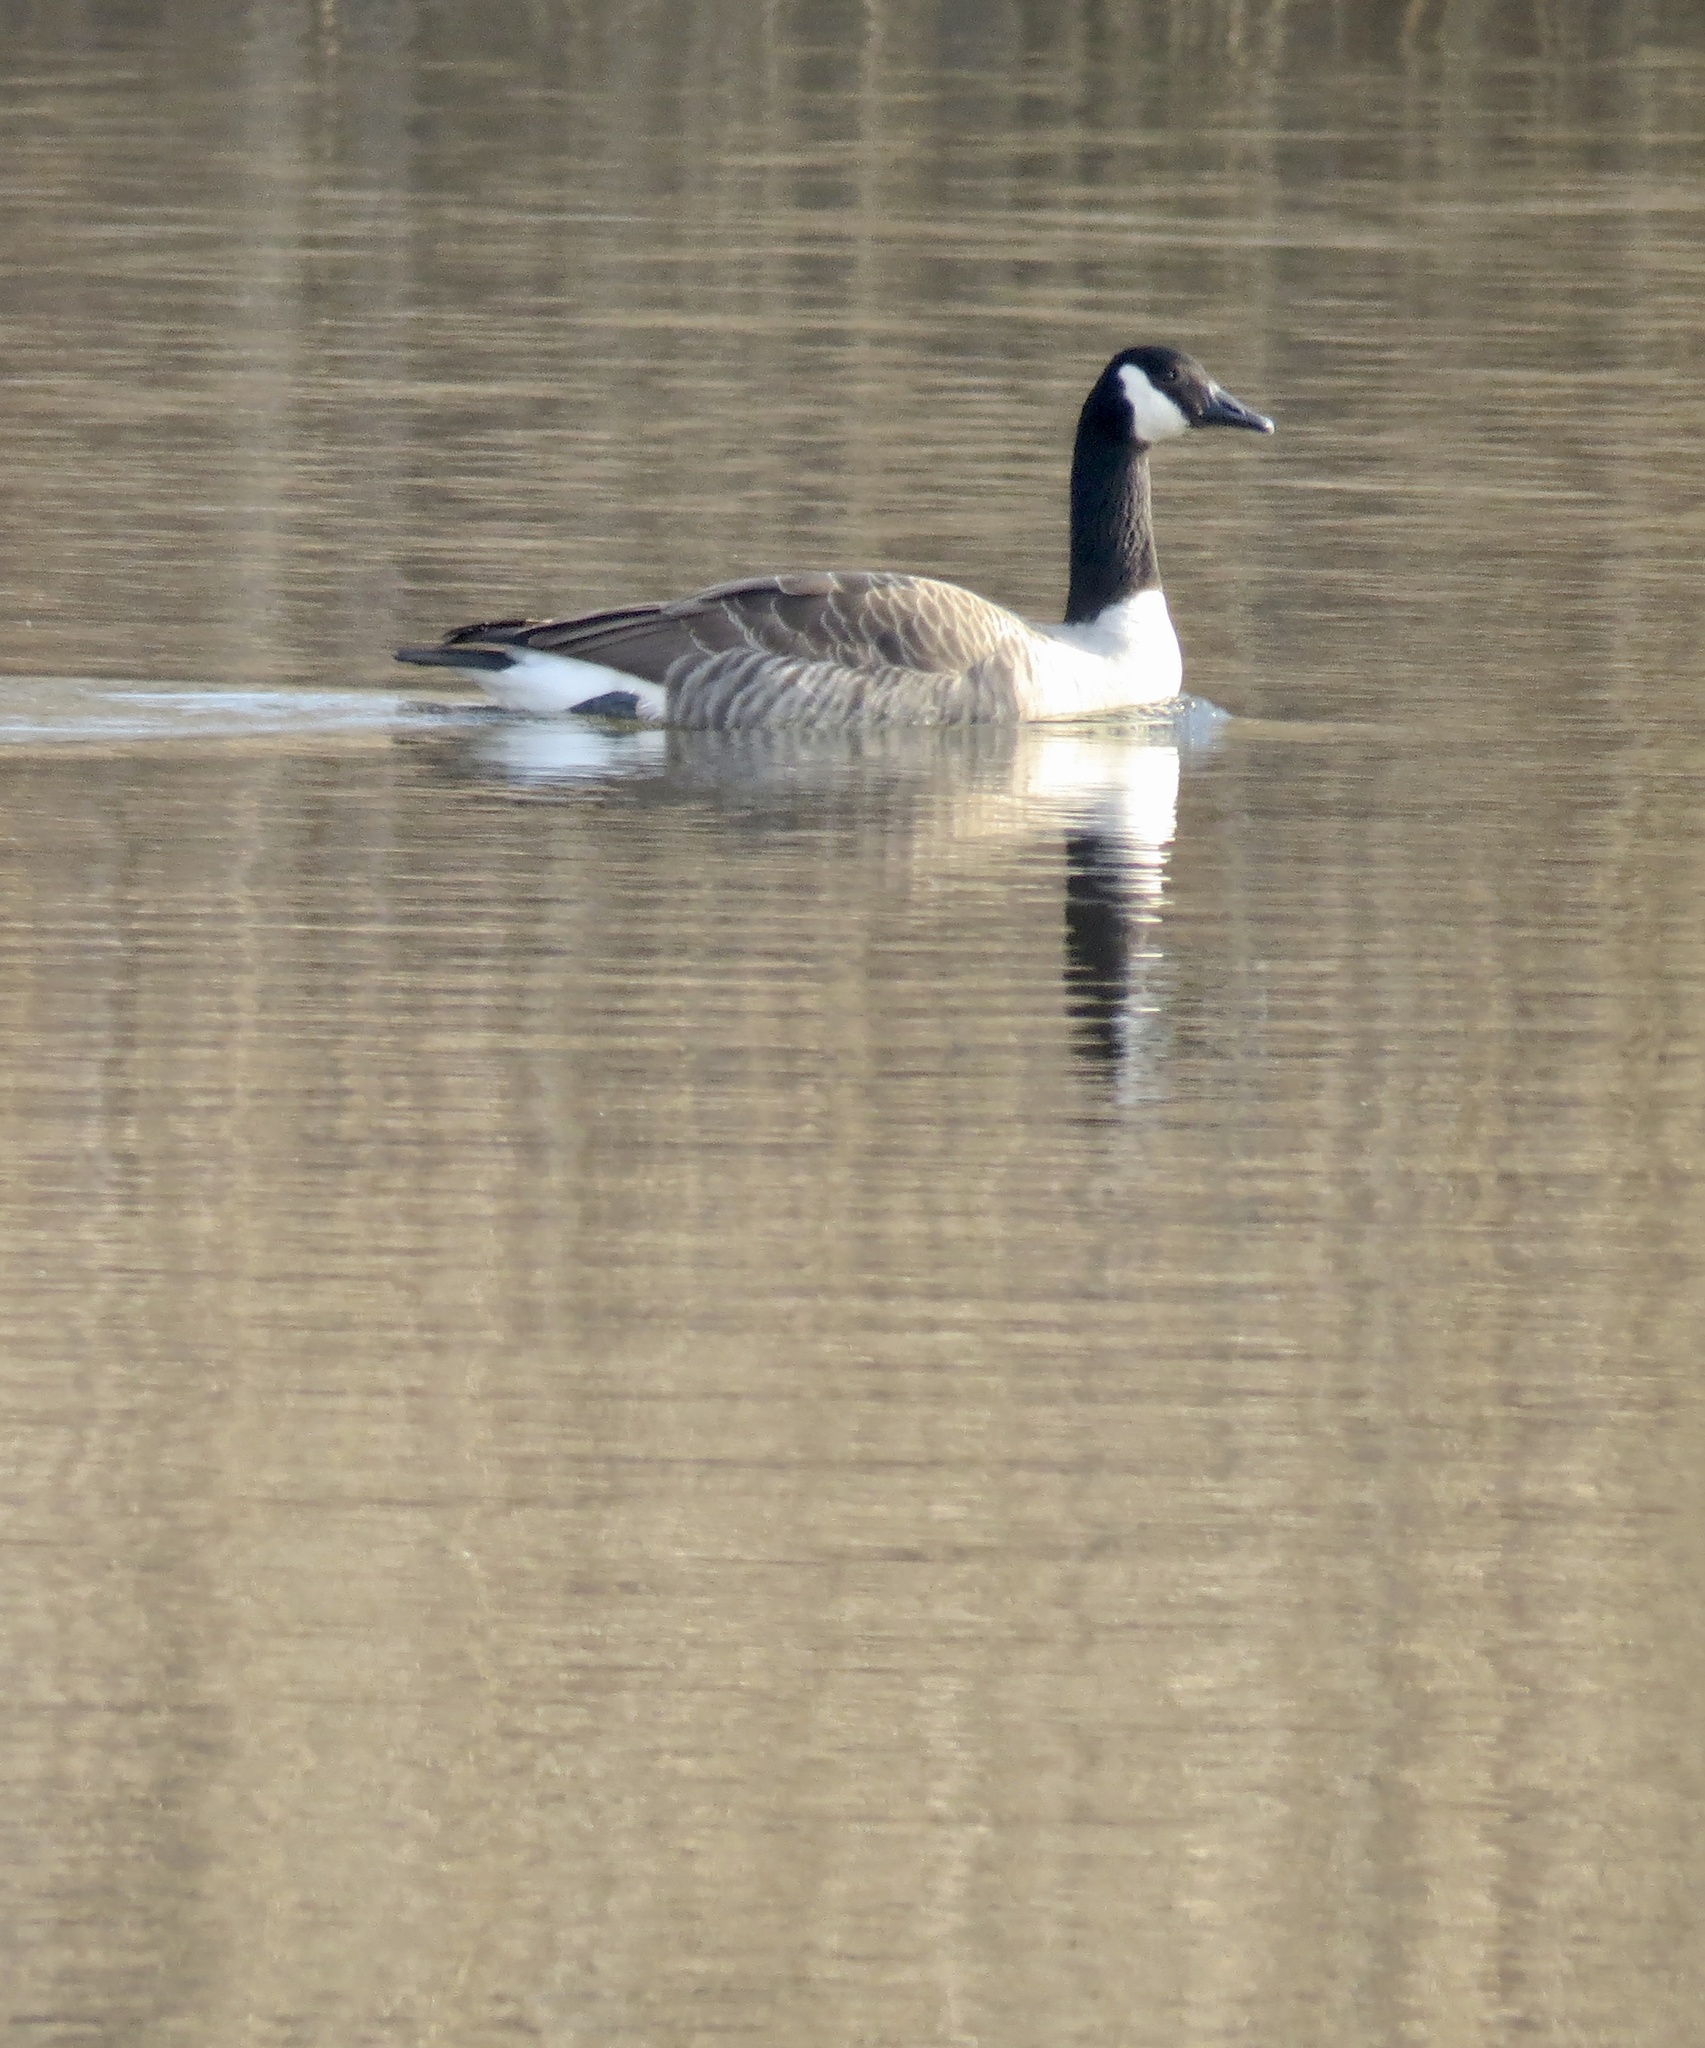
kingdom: Animalia
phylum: Chordata
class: Aves
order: Anseriformes
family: Anatidae
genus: Branta
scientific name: Branta canadensis
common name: Canada goose
